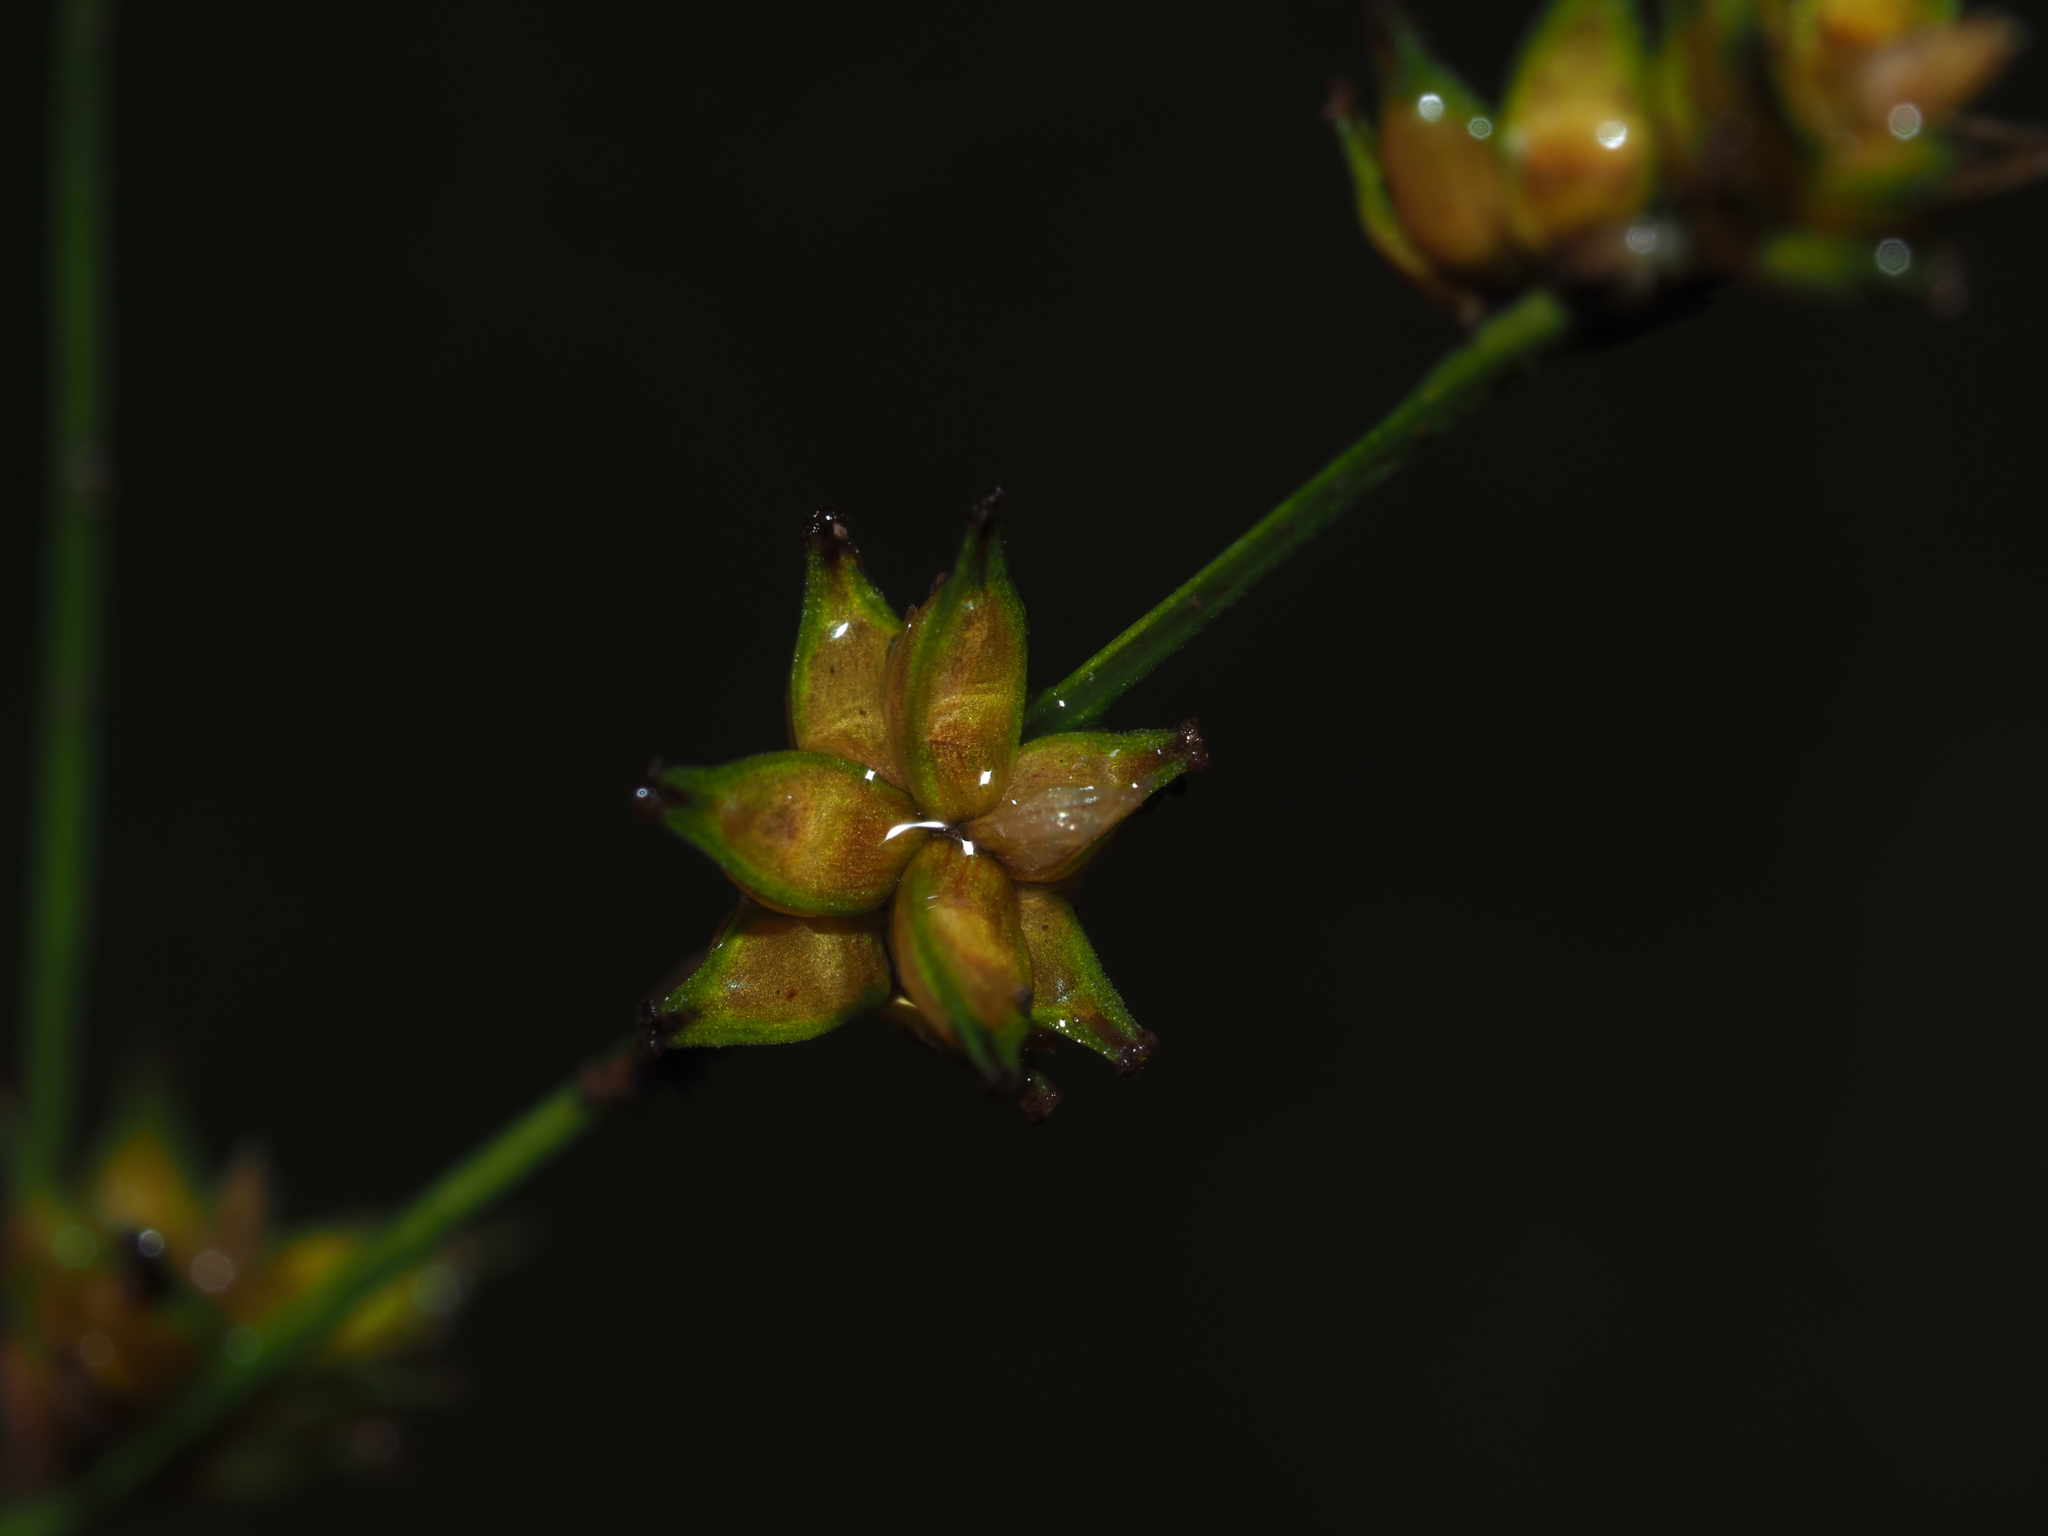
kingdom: Plantae
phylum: Tracheophyta
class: Liliopsida
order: Poales
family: Cyperaceae
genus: Carex
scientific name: Carex radiata
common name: Eastern star sedge
